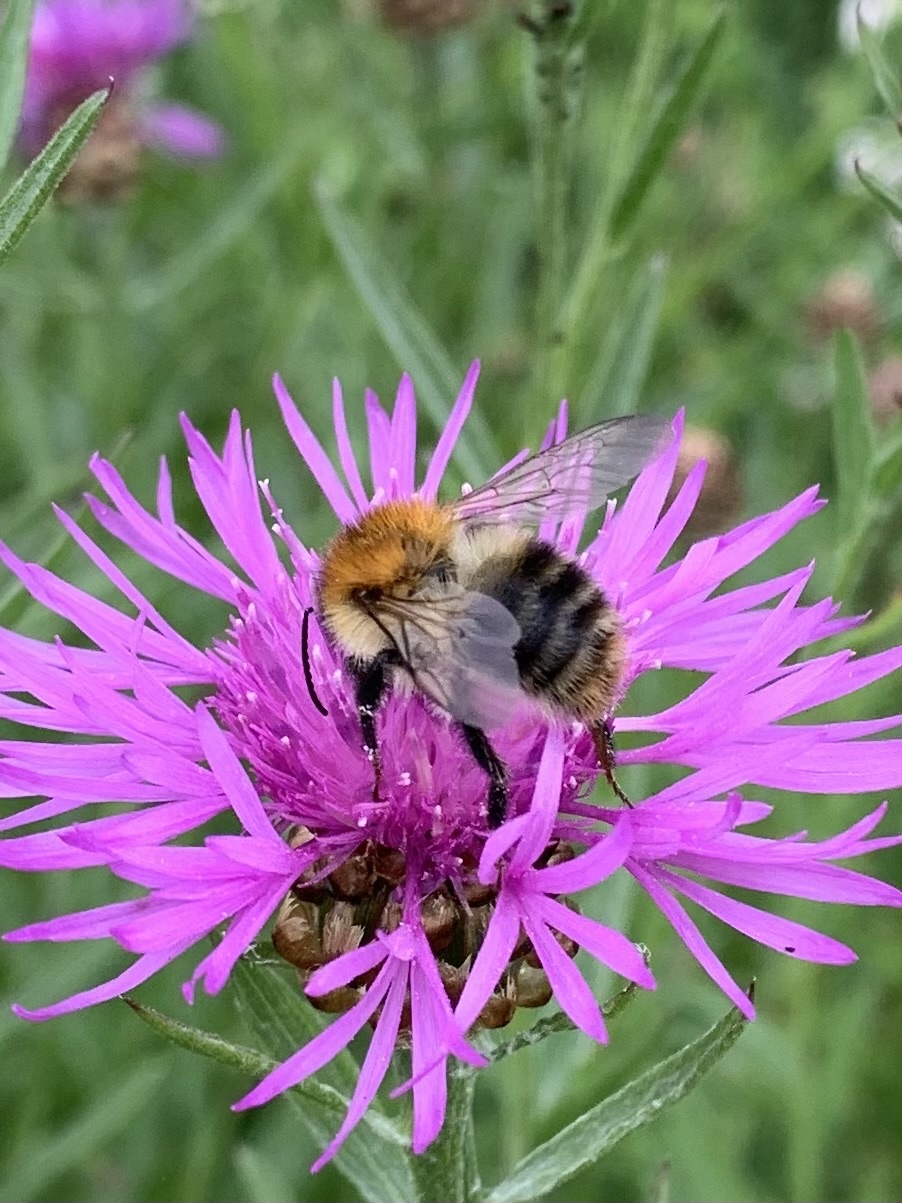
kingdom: Animalia
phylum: Arthropoda
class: Insecta
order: Hymenoptera
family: Apidae
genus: Bombus
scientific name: Bombus pascuorum
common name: Common carder bee
